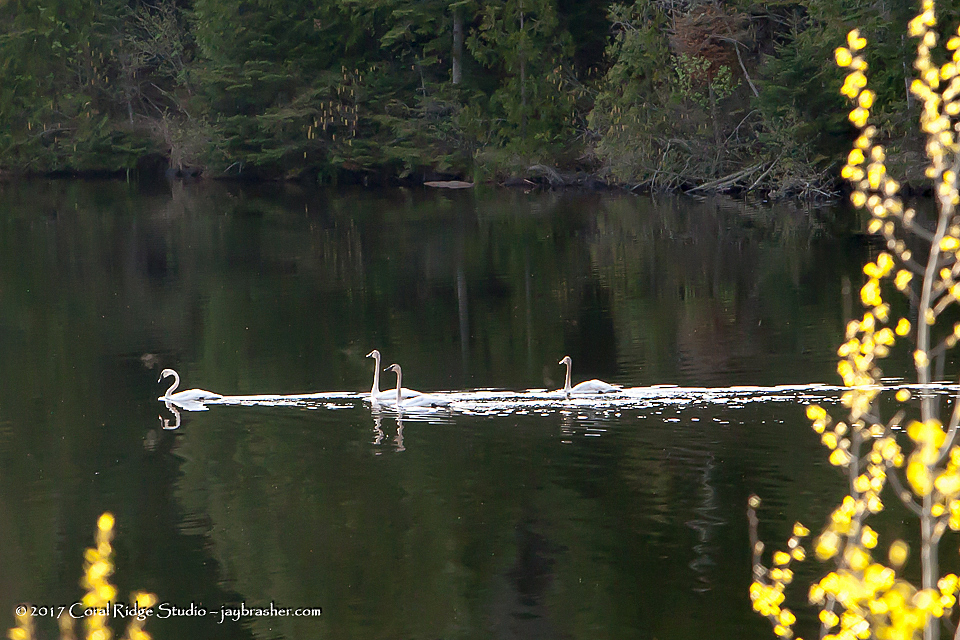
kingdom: Animalia
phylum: Chordata
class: Aves
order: Anseriformes
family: Anatidae
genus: Cygnus
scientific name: Cygnus buccinator
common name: Trumpeter swan
